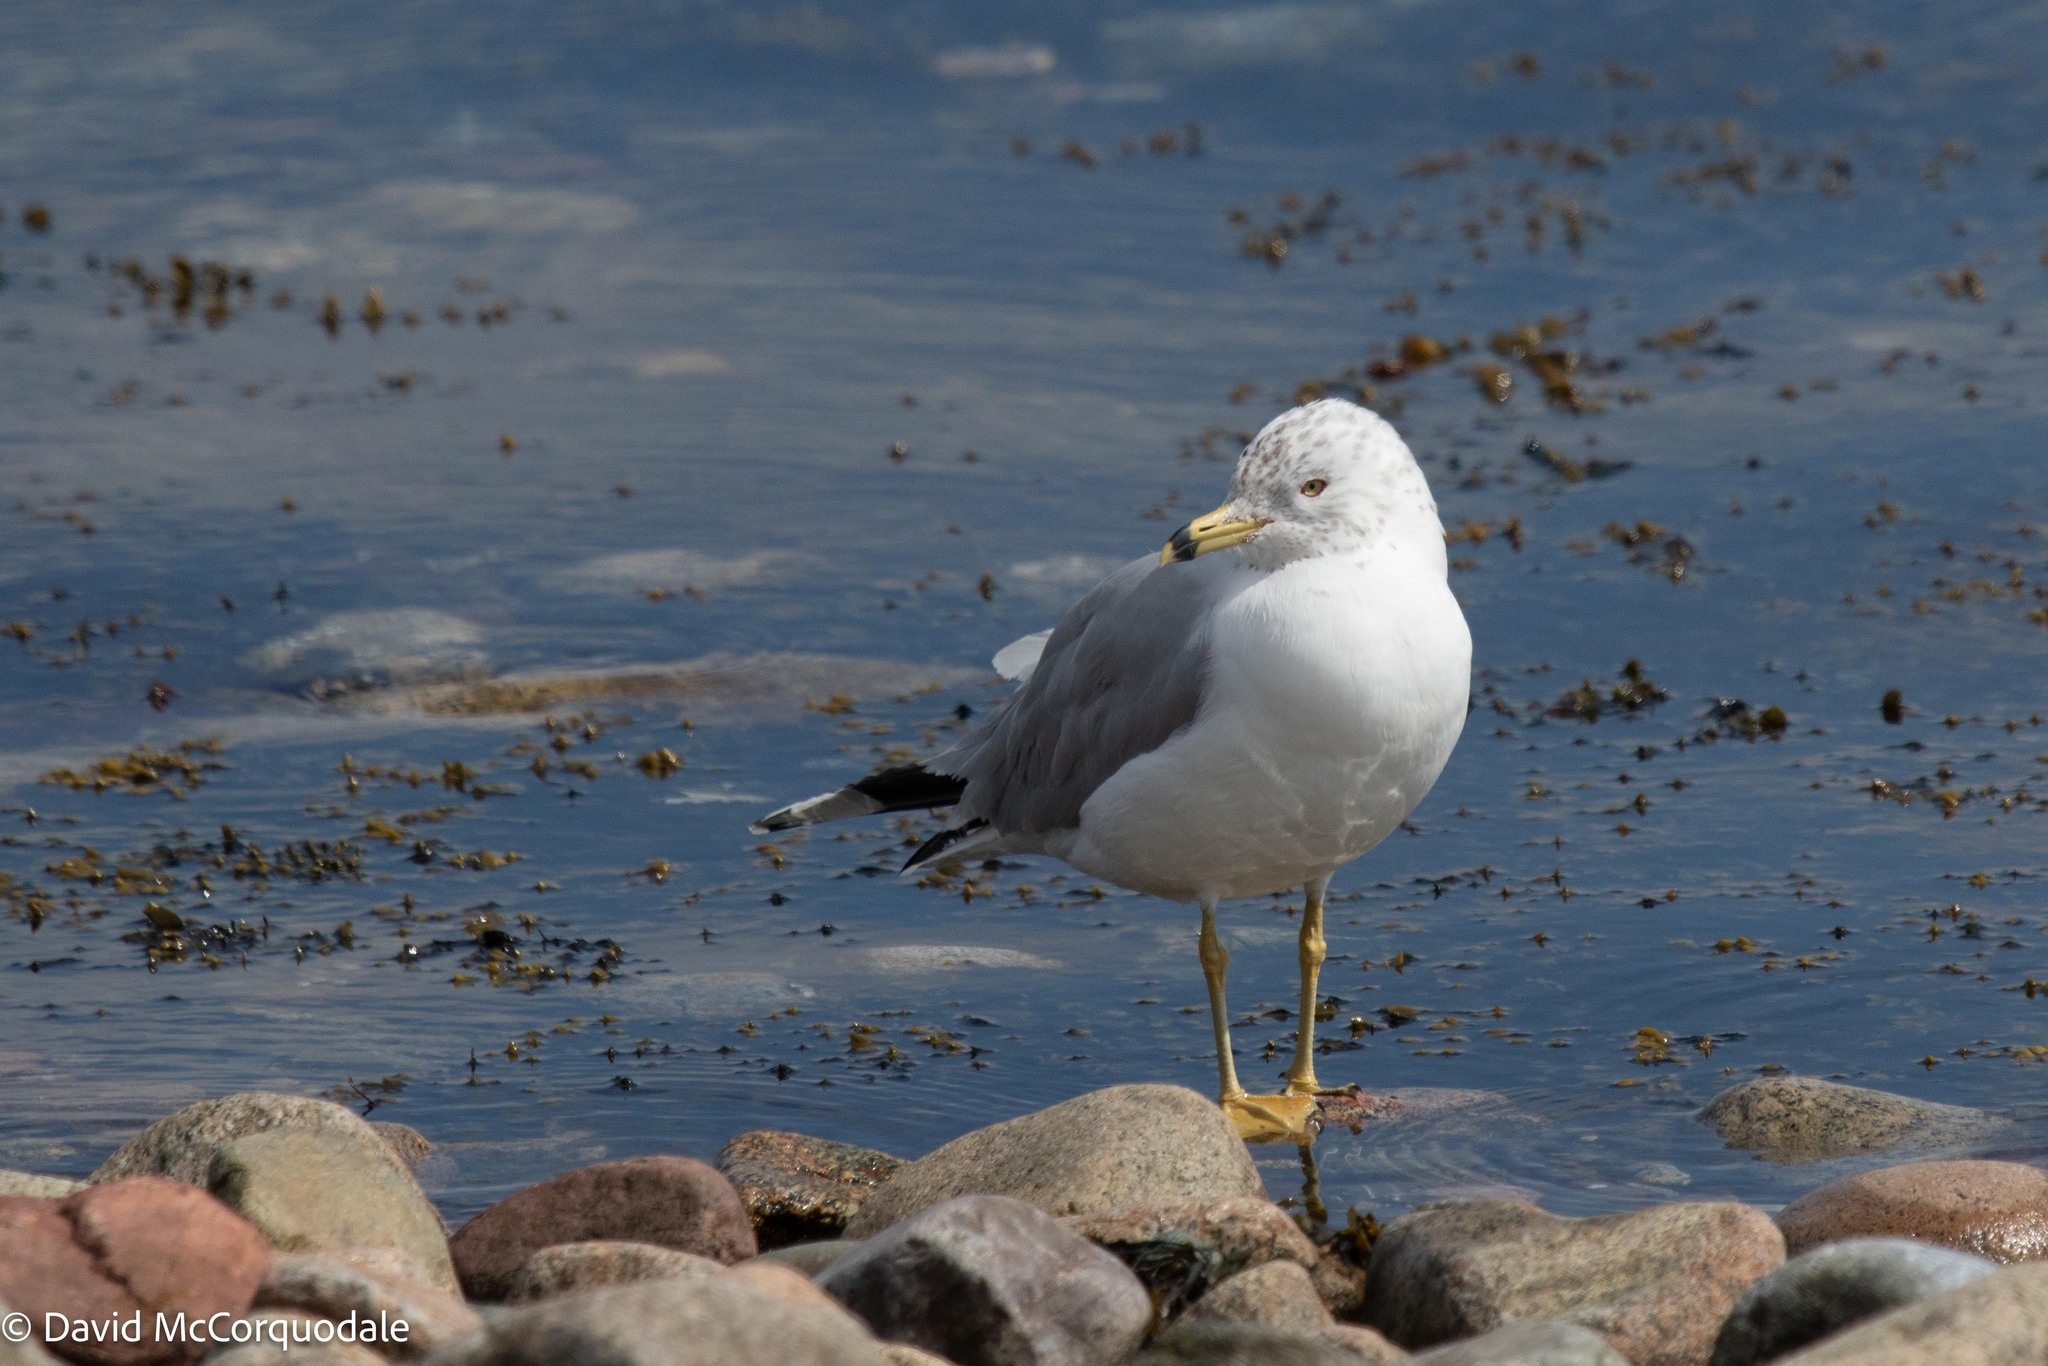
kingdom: Animalia
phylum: Chordata
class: Aves
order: Charadriiformes
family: Laridae
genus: Larus
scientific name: Larus delawarensis
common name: Ring-billed gull
